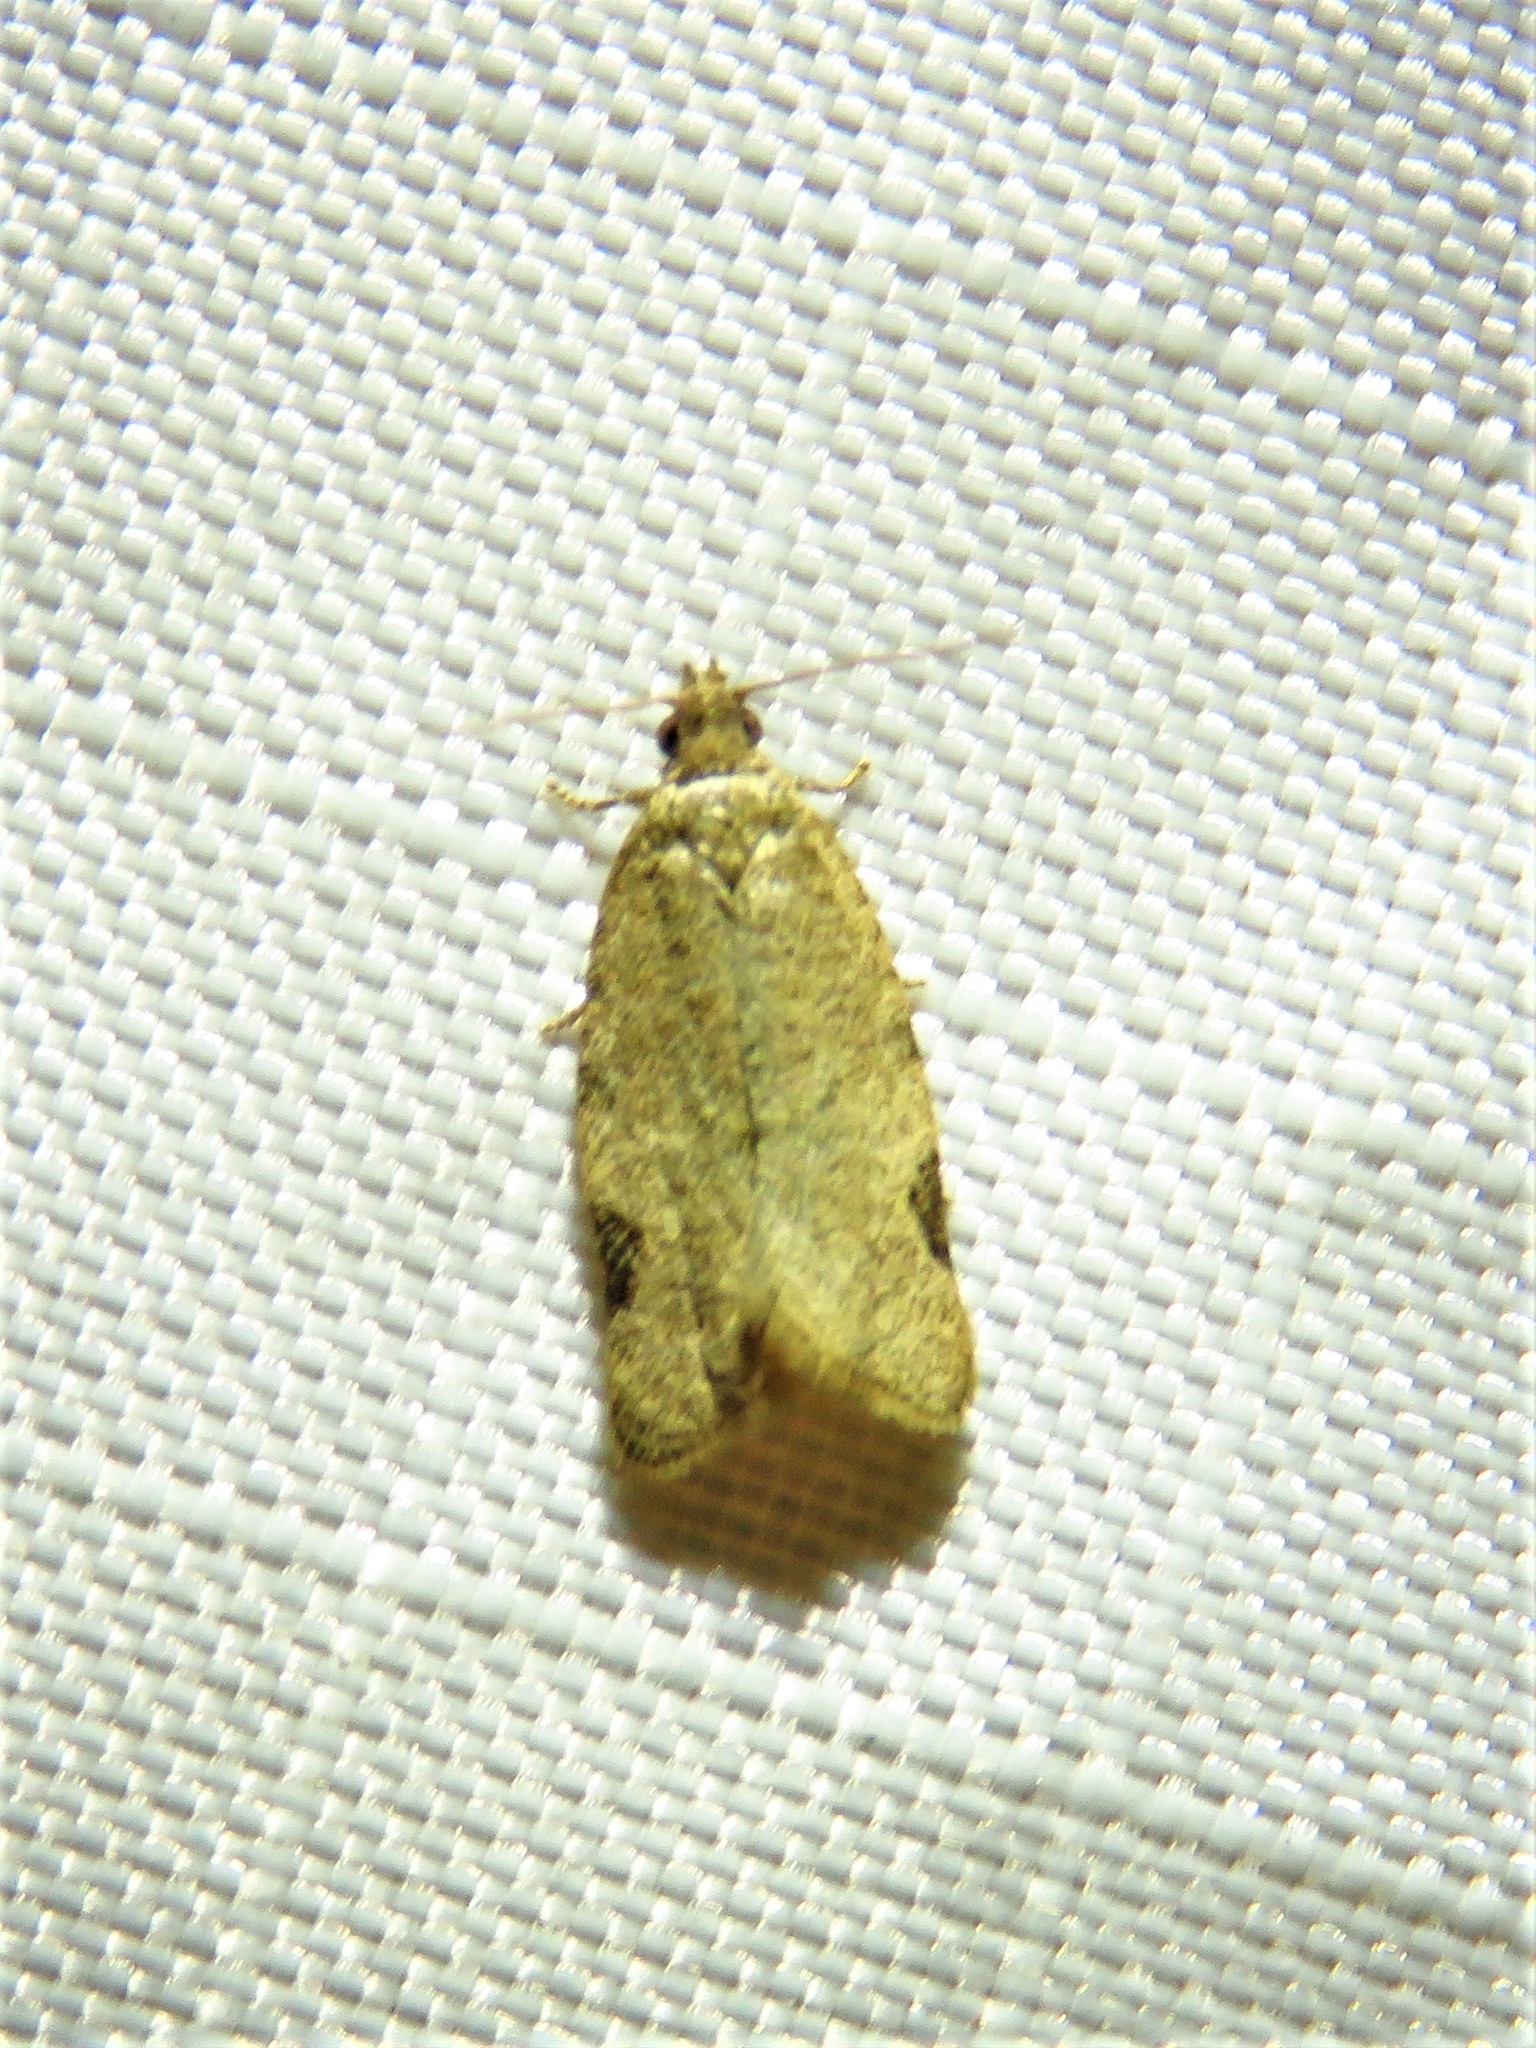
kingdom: Animalia
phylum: Arthropoda
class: Insecta
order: Lepidoptera
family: Tortricidae
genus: Clepsis
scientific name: Clepsis virescana
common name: Greenish apple moth
